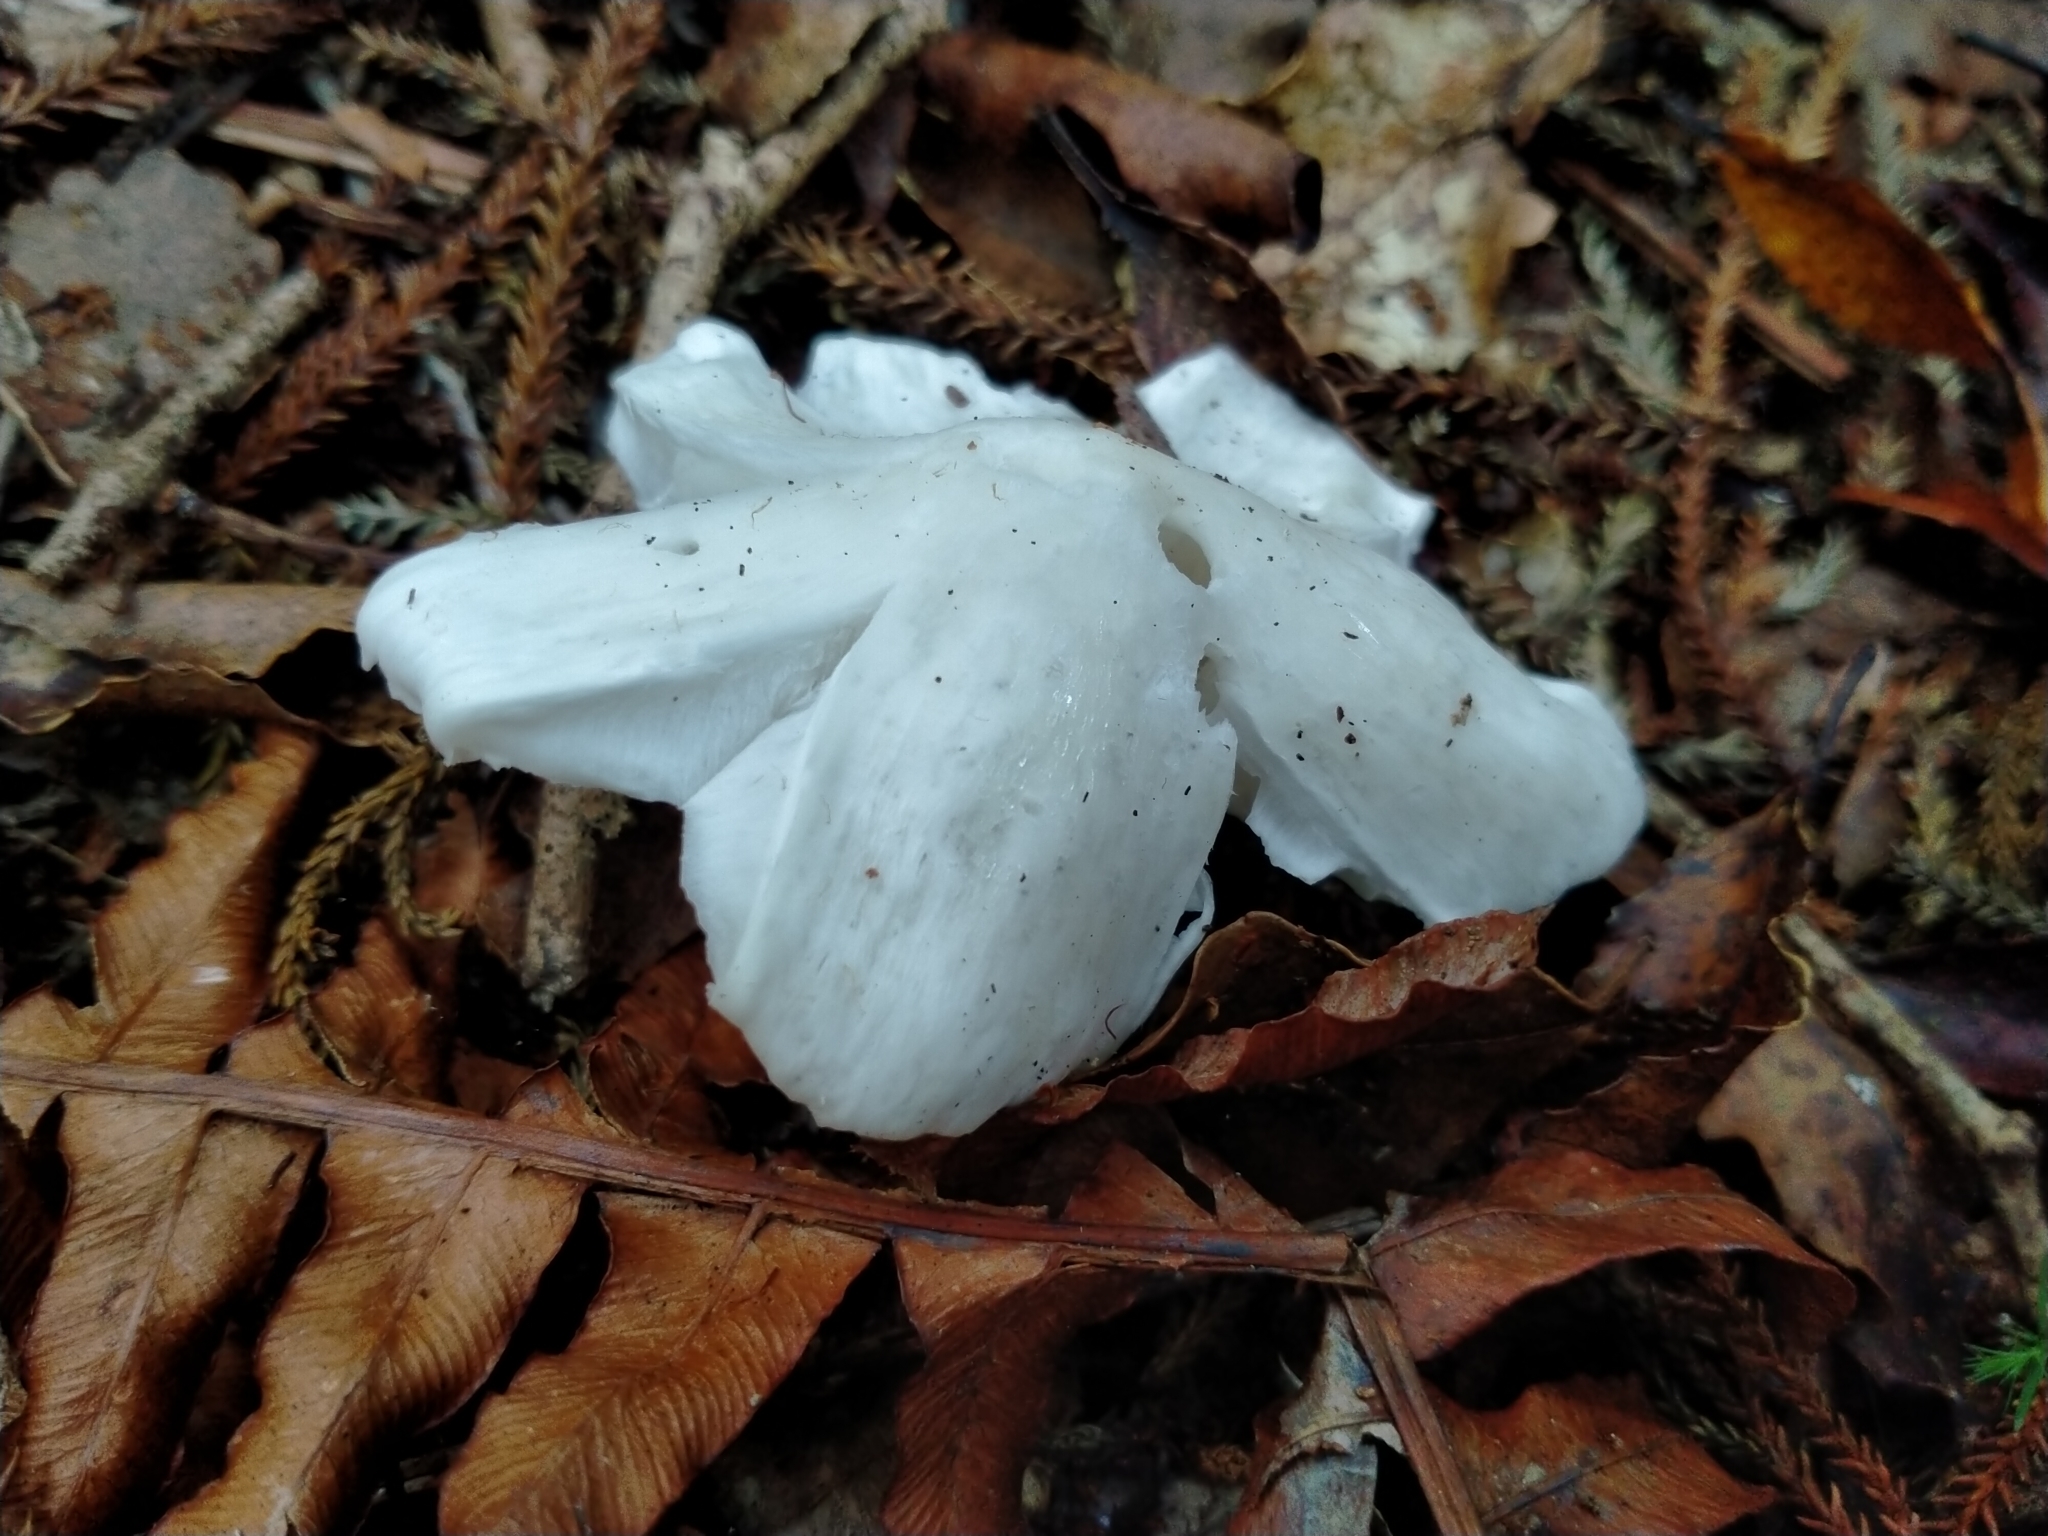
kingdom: Fungi
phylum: Basidiomycota
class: Agaricomycetes
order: Agaricales
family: Hygrophoraceae
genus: Humidicutis
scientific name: Humidicutis mavis
